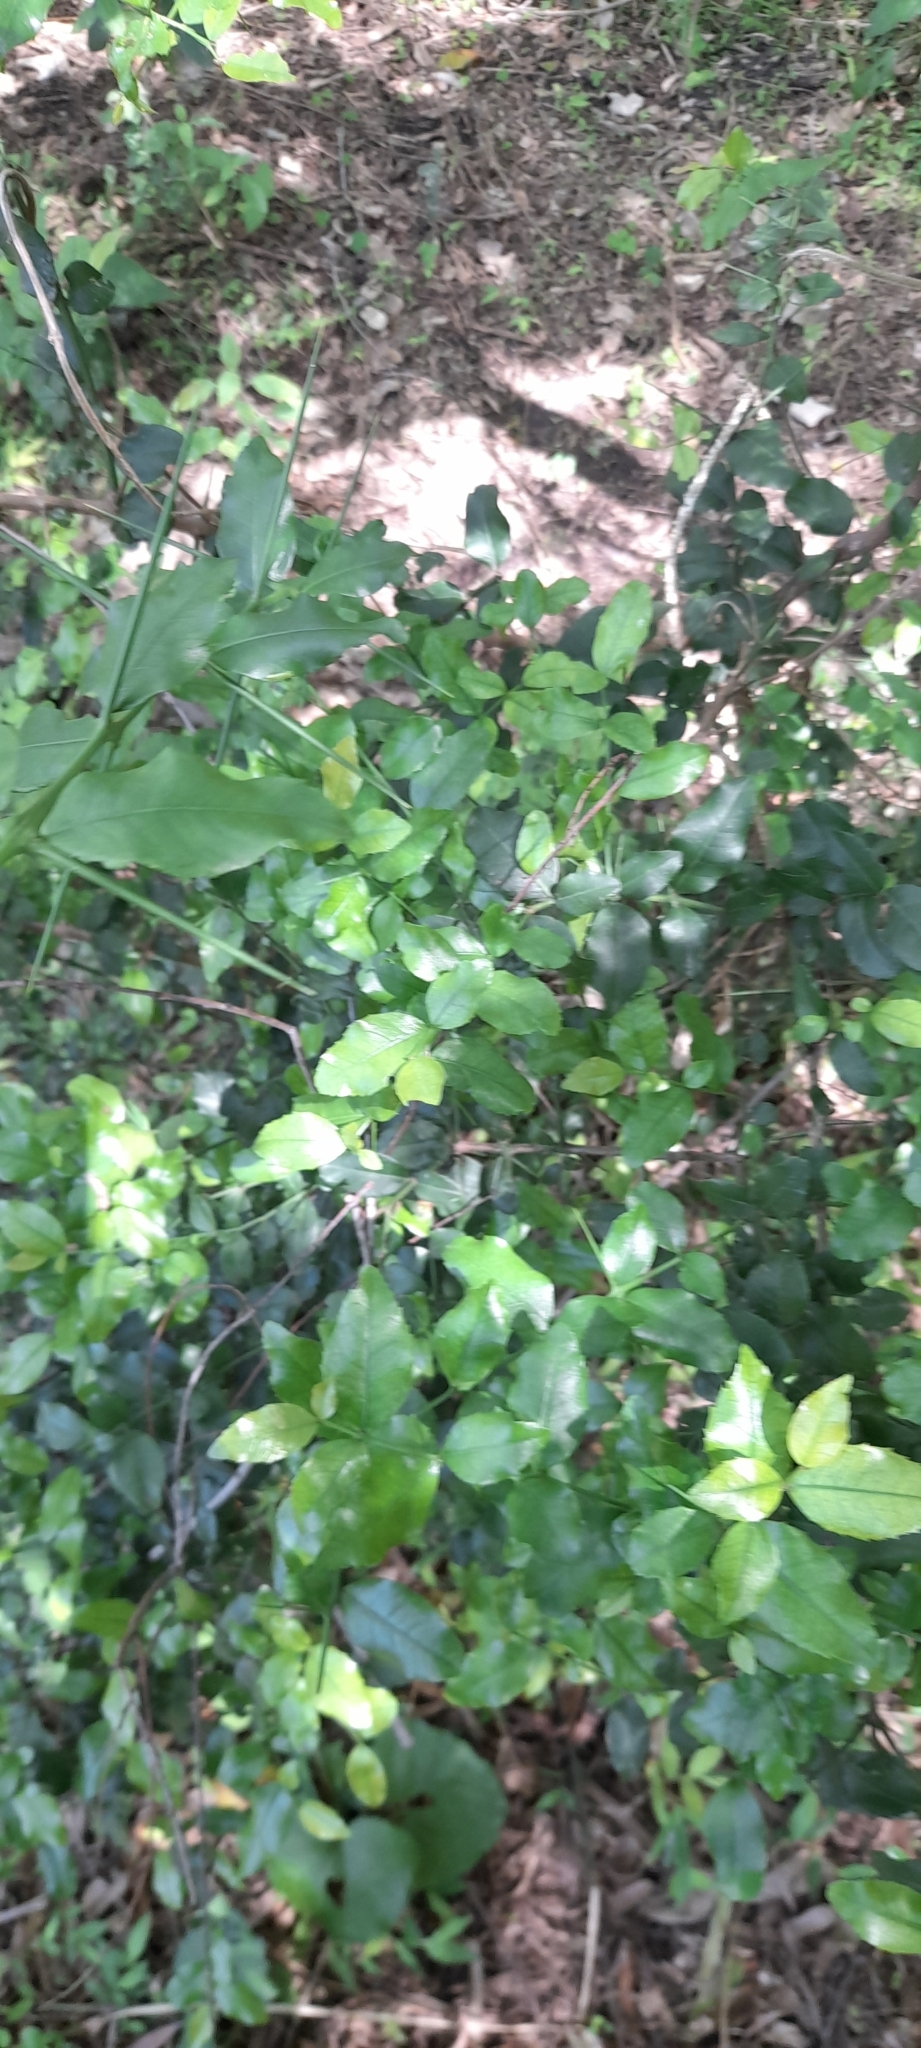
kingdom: Plantae
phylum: Tracheophyta
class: Magnoliopsida
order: Rosales
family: Rhamnaceae
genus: Scutia
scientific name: Scutia buxifolia
